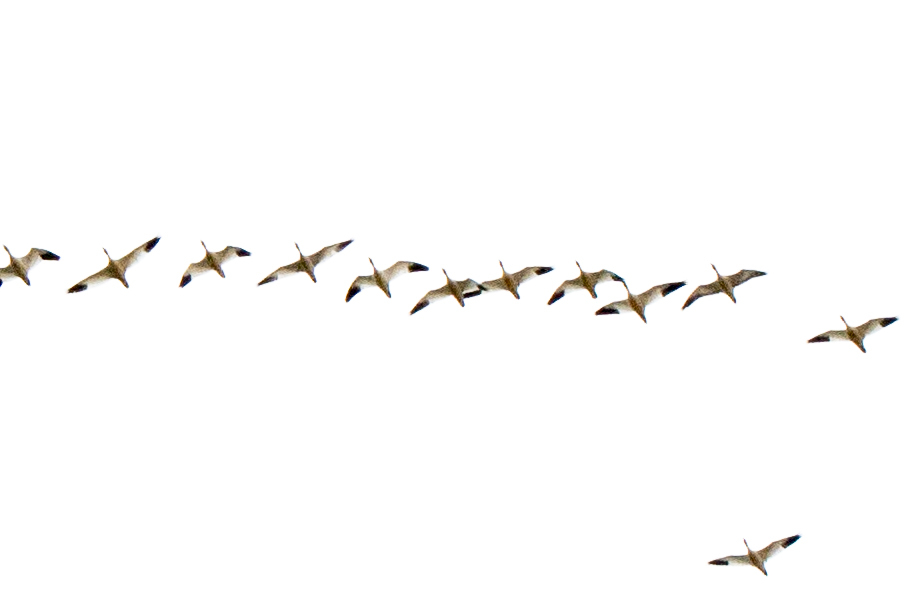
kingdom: Animalia
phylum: Chordata
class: Aves
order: Anseriformes
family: Anatidae
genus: Anser
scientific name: Anser caerulescens
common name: Snow goose
